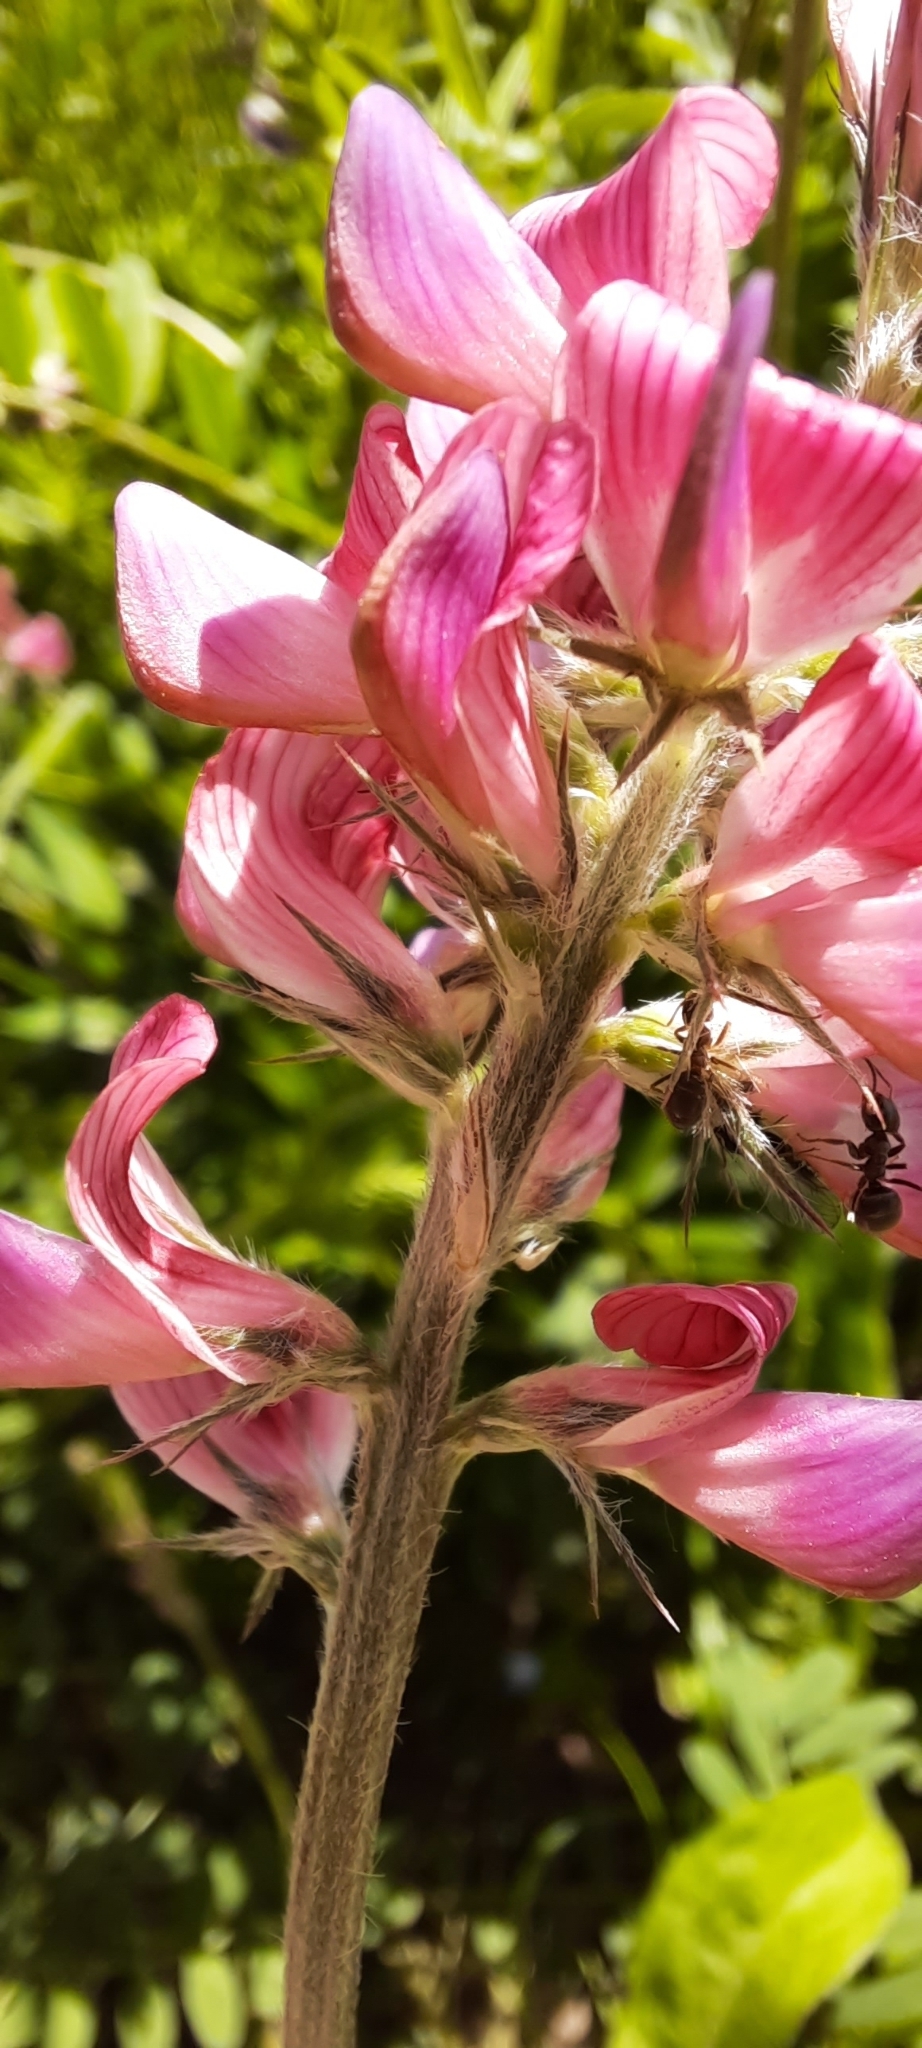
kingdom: Plantae
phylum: Tracheophyta
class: Magnoliopsida
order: Fabales
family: Fabaceae
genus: Onobrychis
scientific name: Onobrychis viciifolia
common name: Sainfoin
